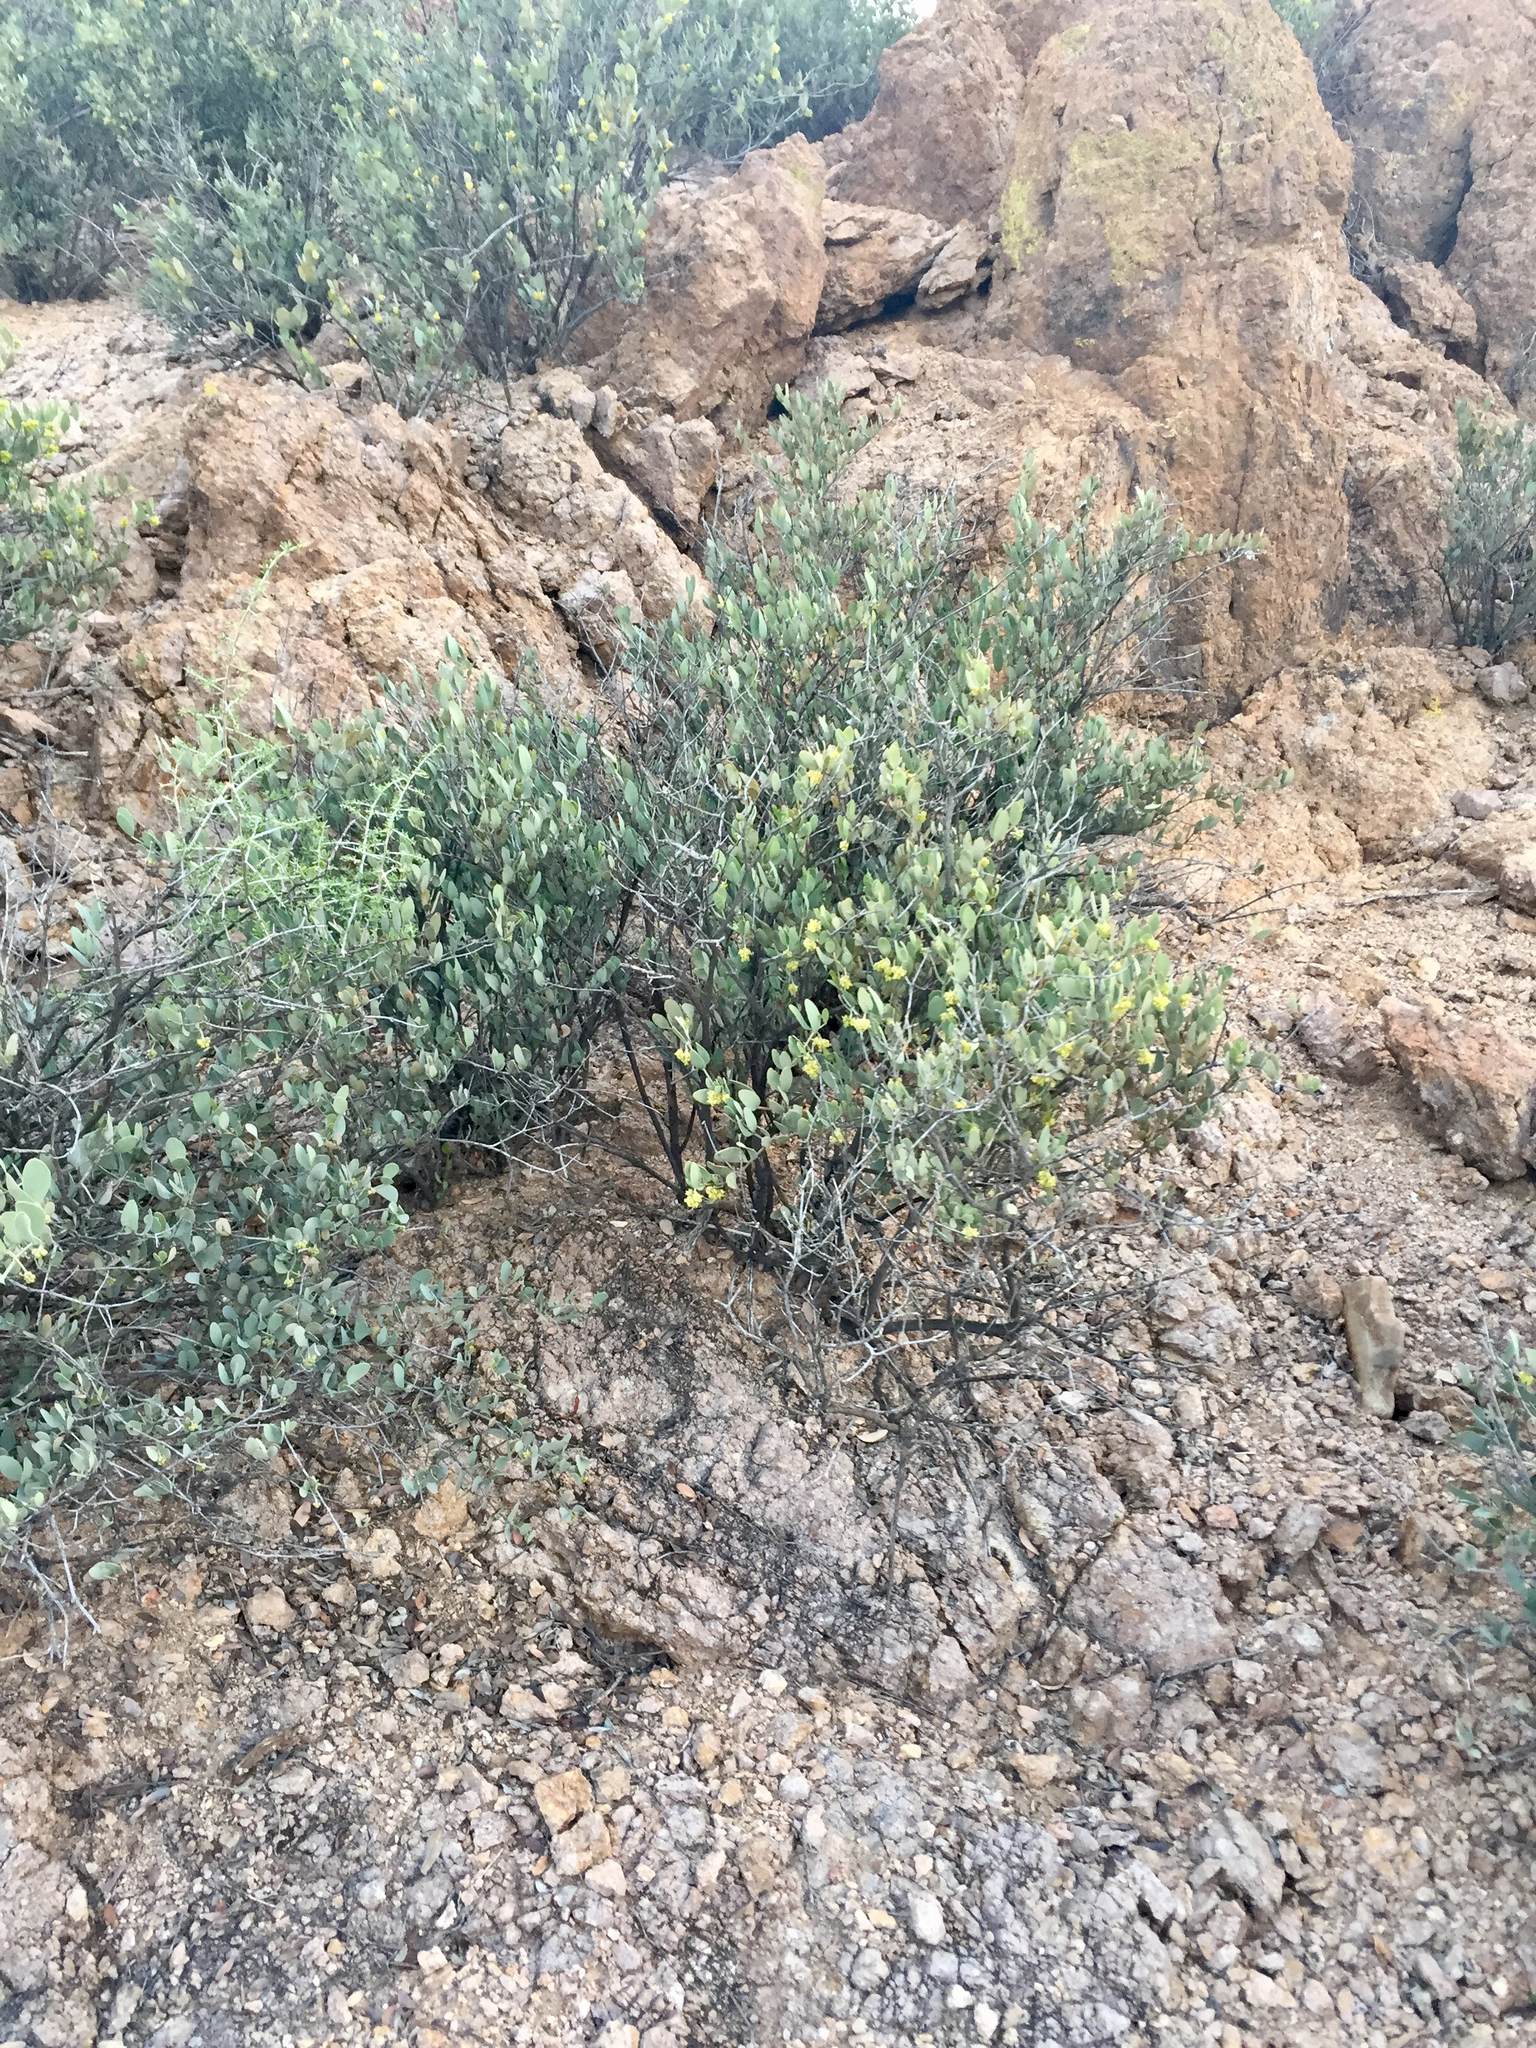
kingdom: Plantae
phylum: Tracheophyta
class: Magnoliopsida
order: Caryophyllales
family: Simmondsiaceae
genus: Simmondsia
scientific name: Simmondsia chinensis
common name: Jojoba
